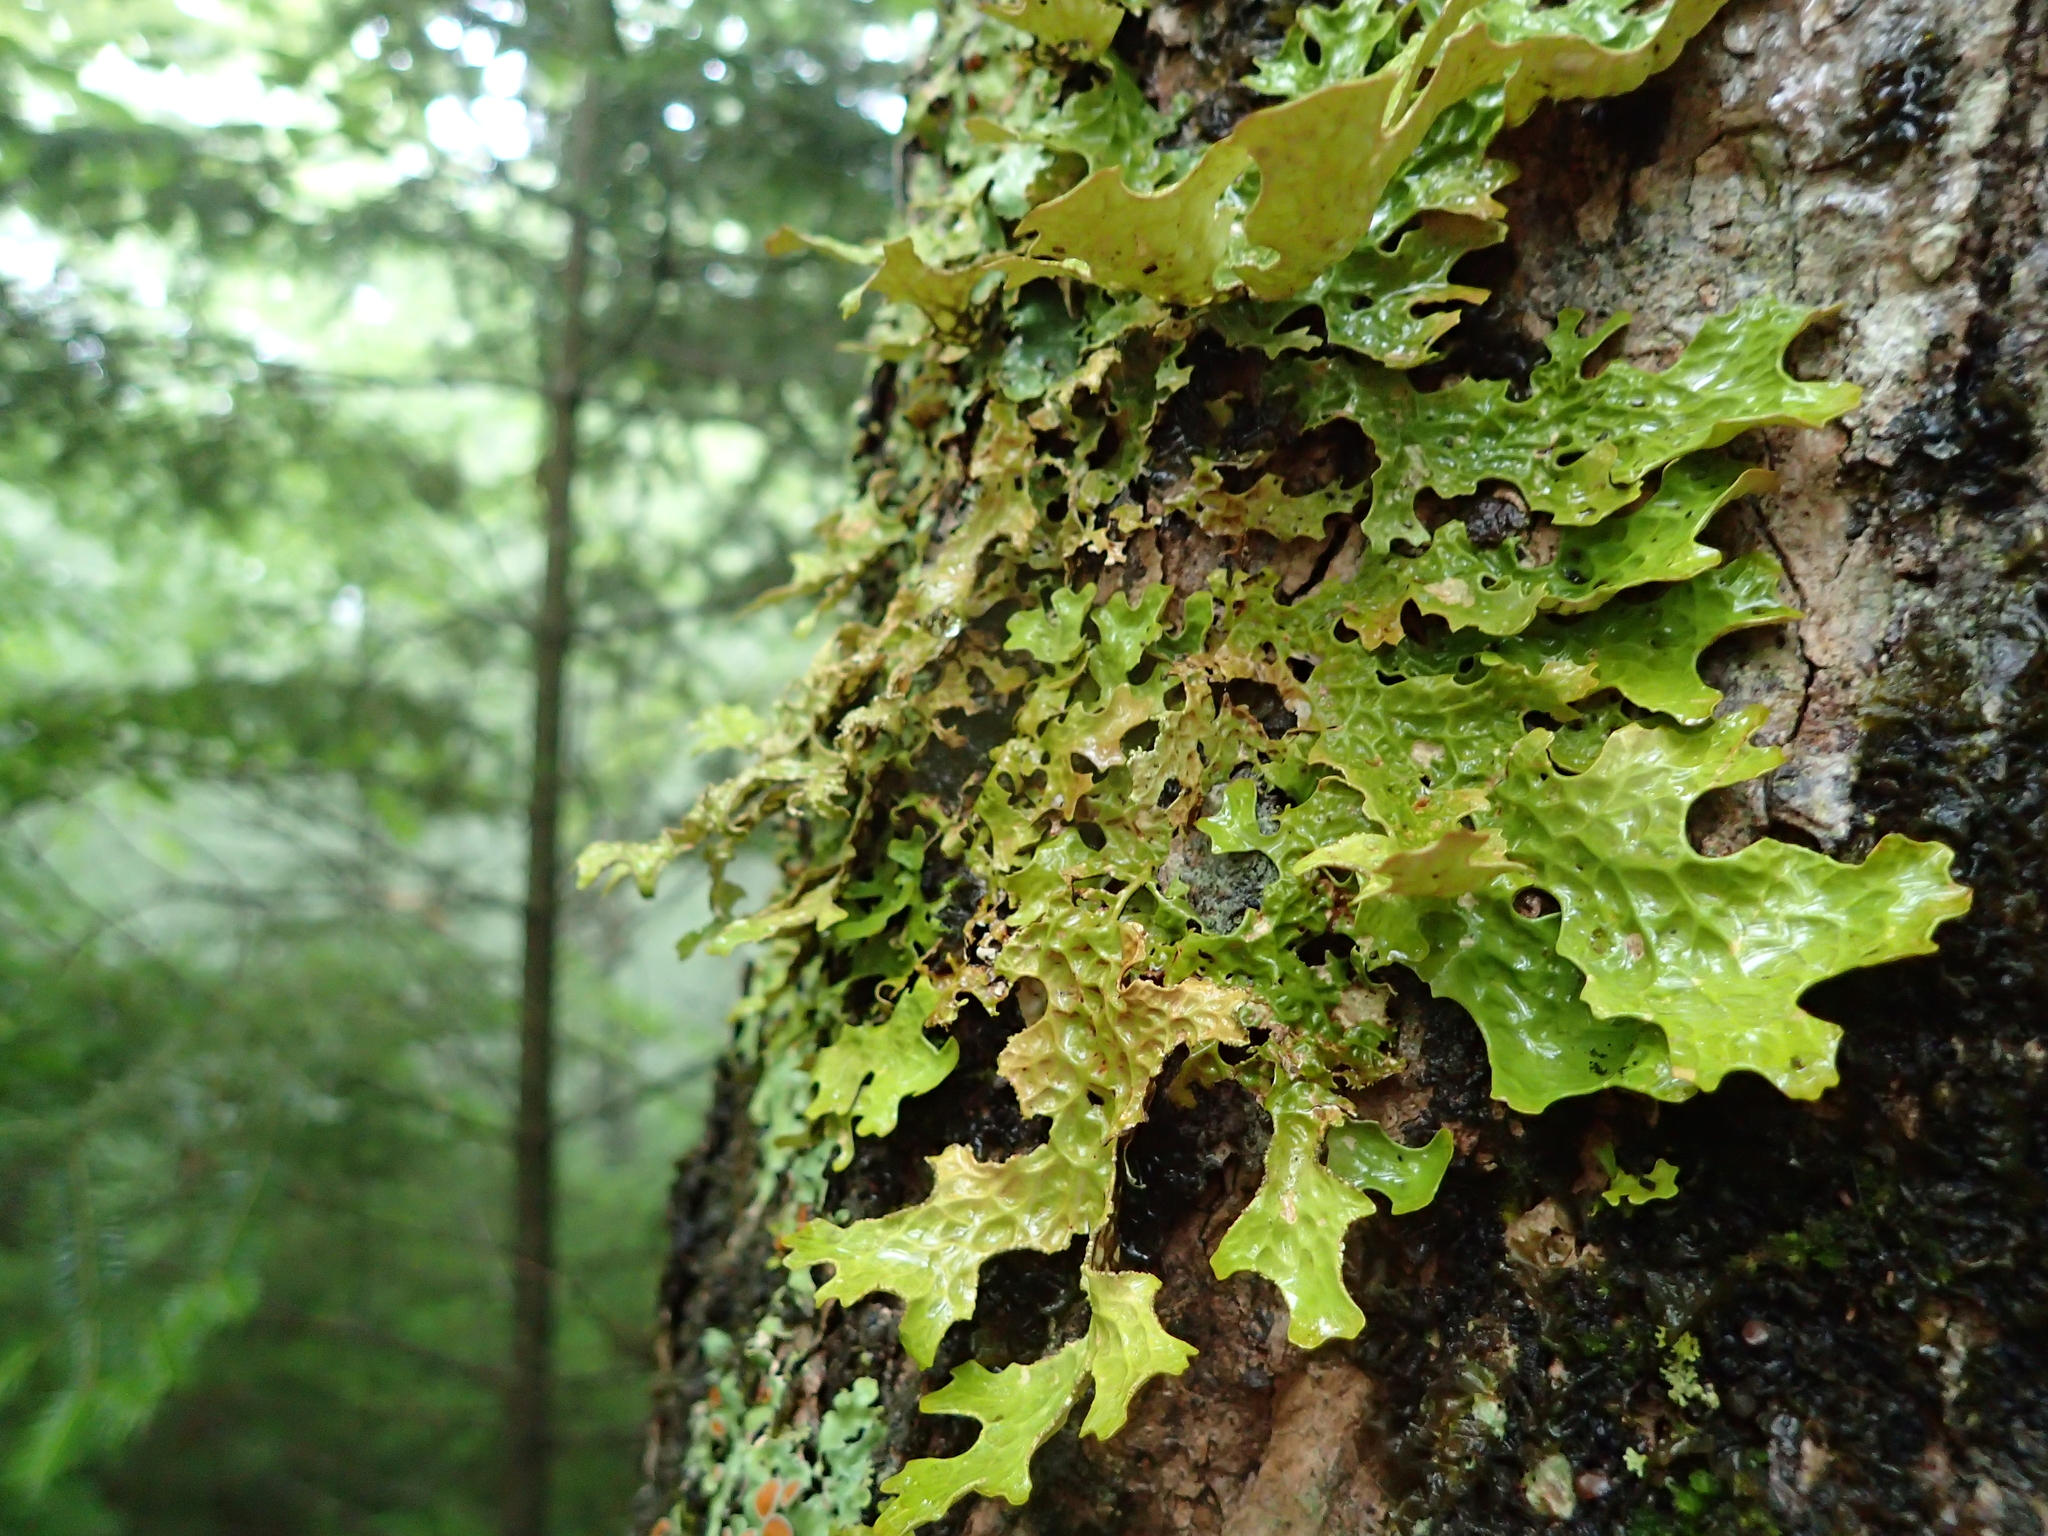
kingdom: Fungi
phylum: Ascomycota
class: Lecanoromycetes
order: Peltigerales
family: Lobariaceae
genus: Lobaria
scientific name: Lobaria pulmonaria
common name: Lungwort
